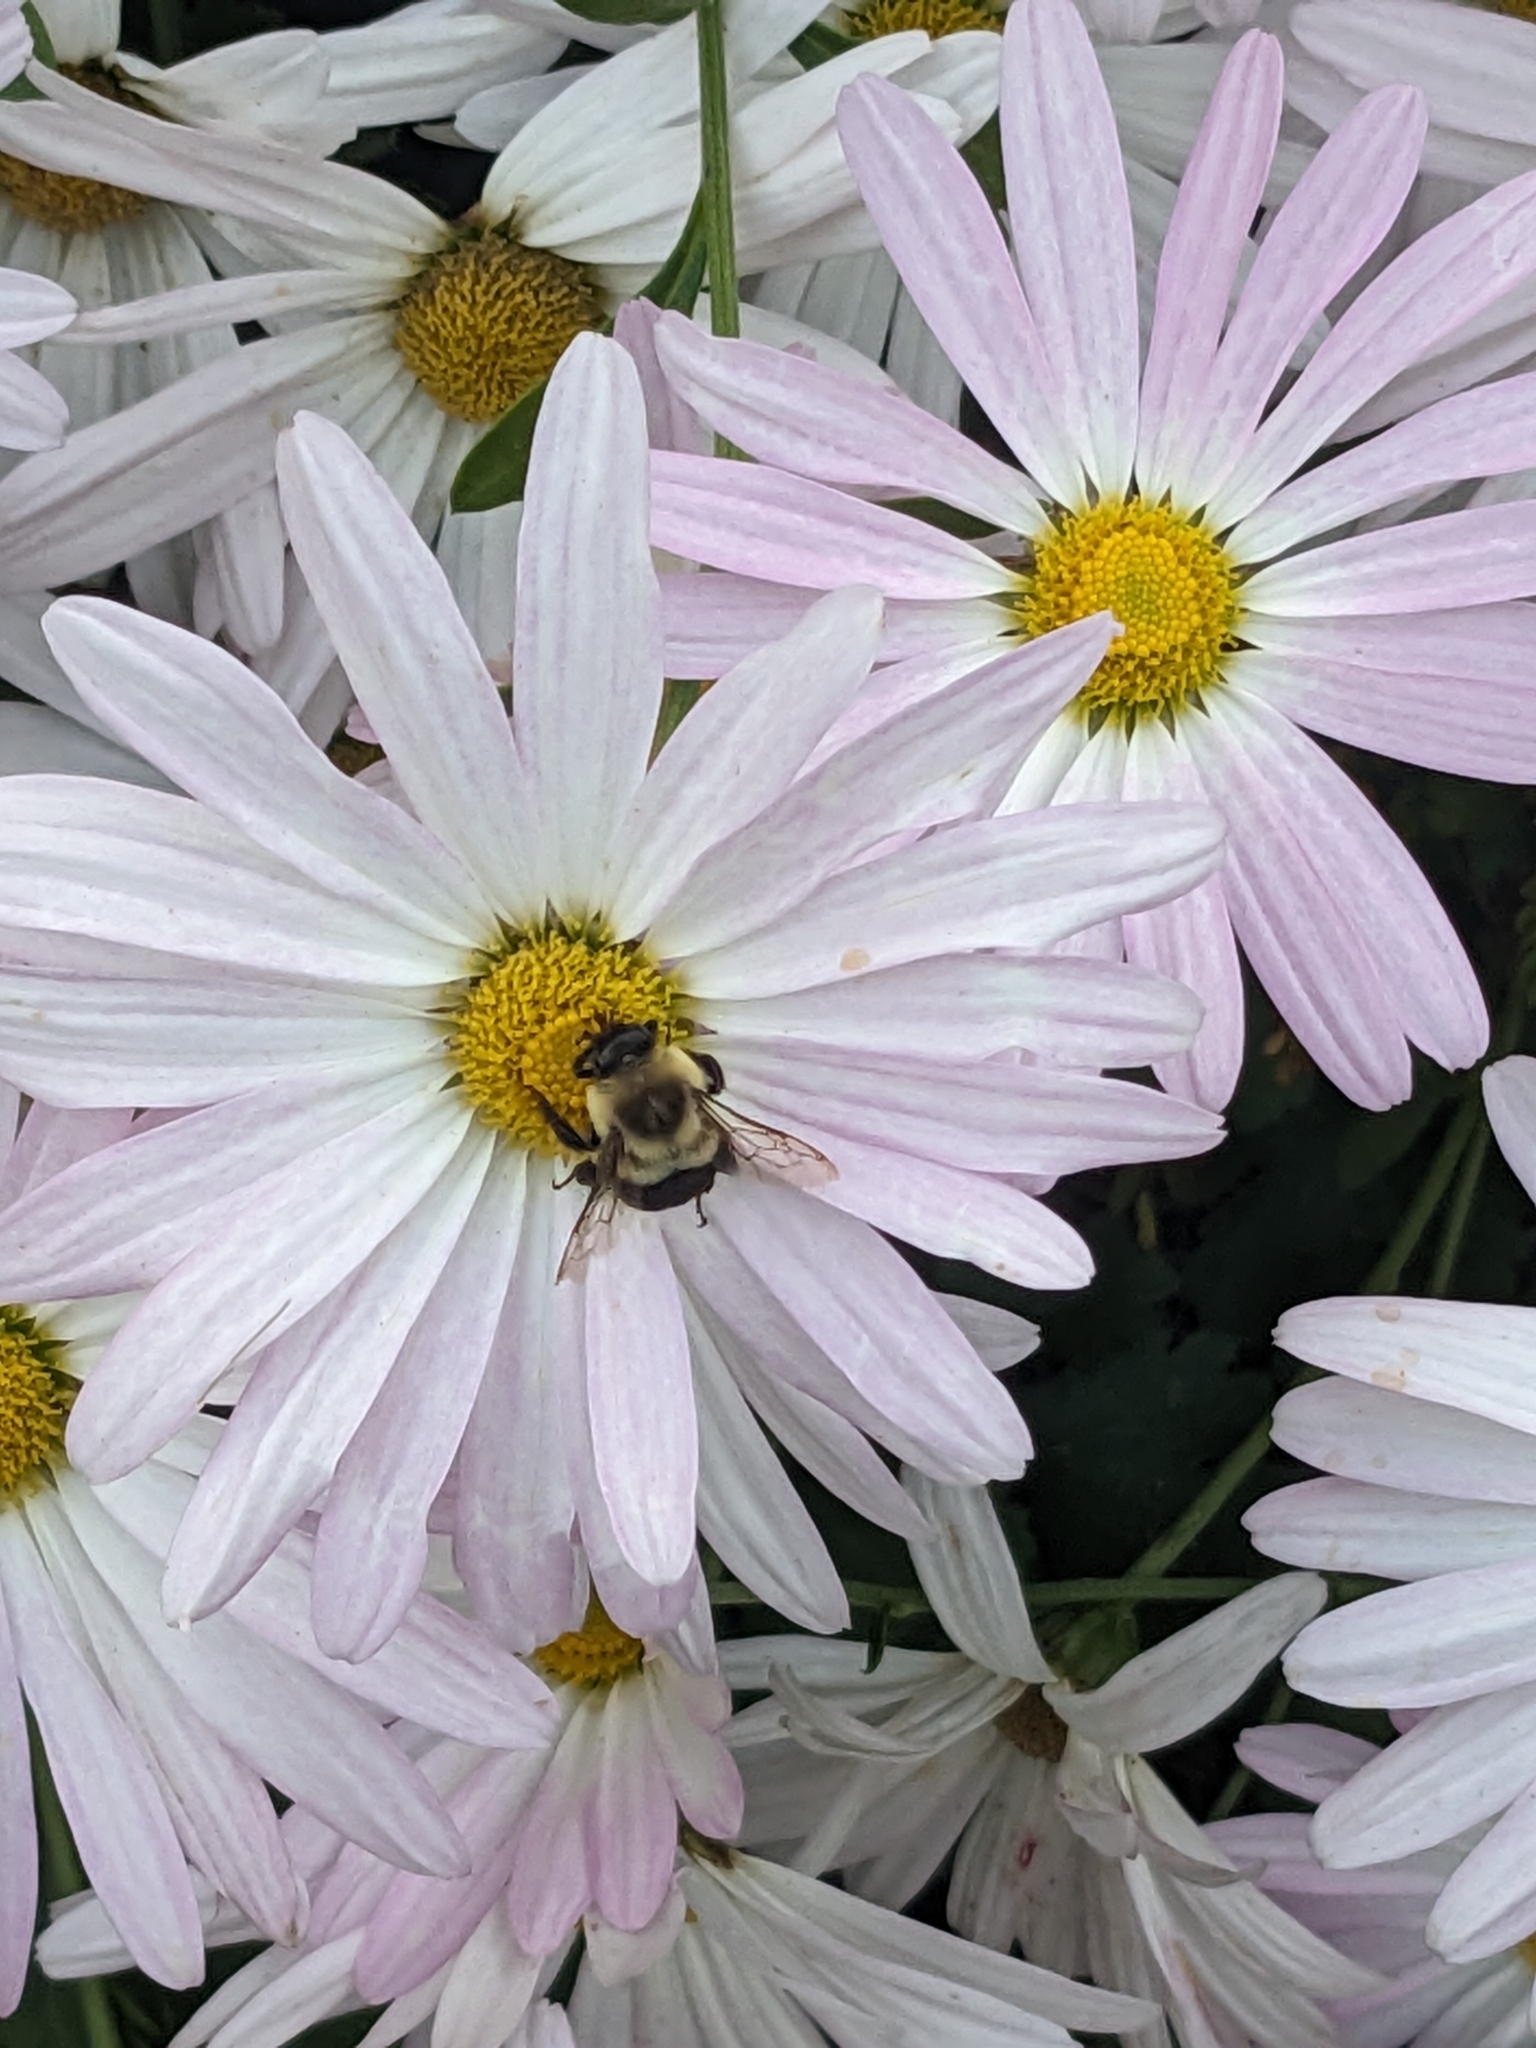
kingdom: Animalia
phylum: Arthropoda
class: Insecta
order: Hymenoptera
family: Apidae
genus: Bombus
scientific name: Bombus impatiens
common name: Common eastern bumble bee
